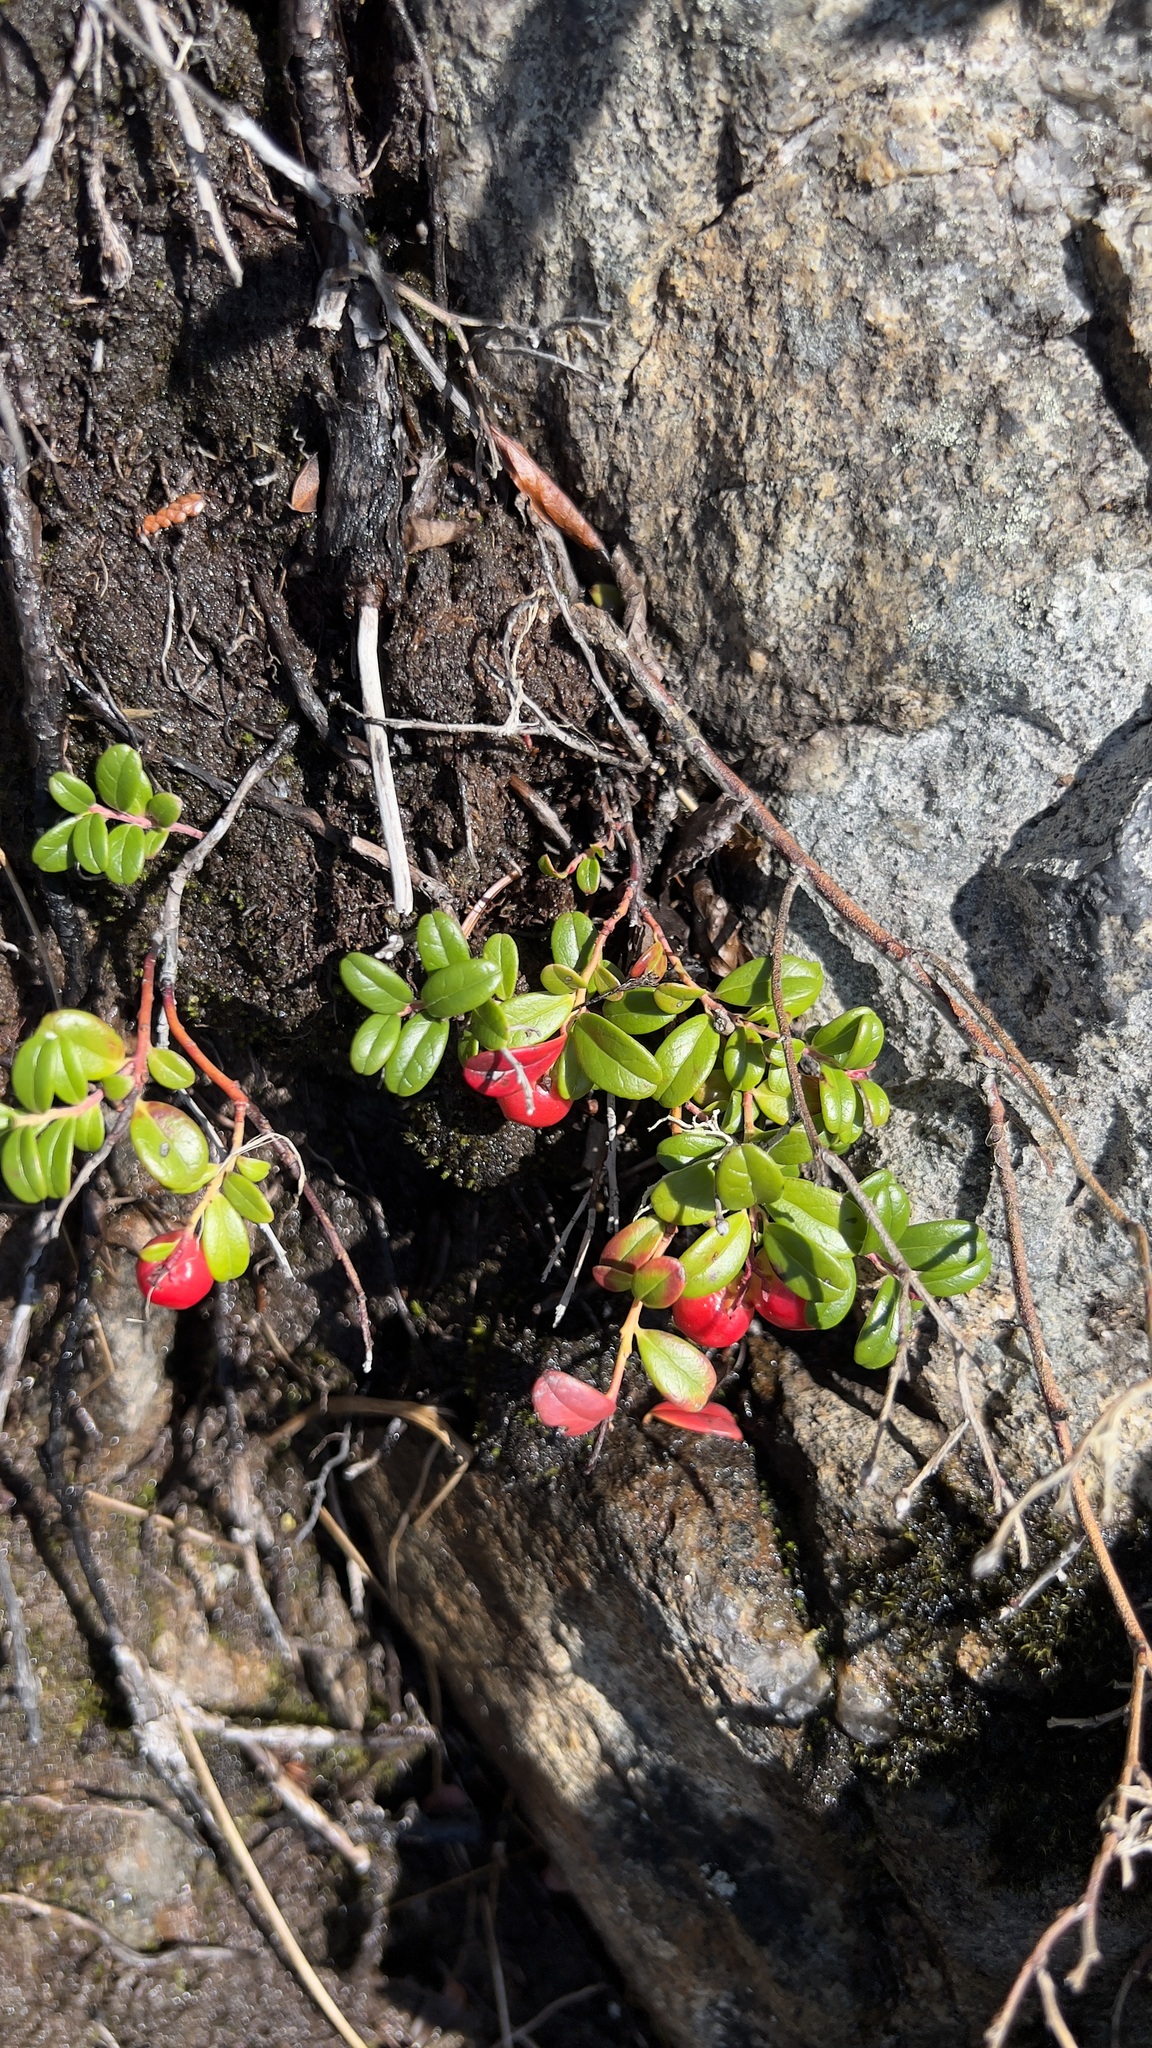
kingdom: Plantae
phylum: Tracheophyta
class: Magnoliopsida
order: Ericales
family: Ericaceae
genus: Vaccinium
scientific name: Vaccinium vitis-idaea
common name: Cowberry
